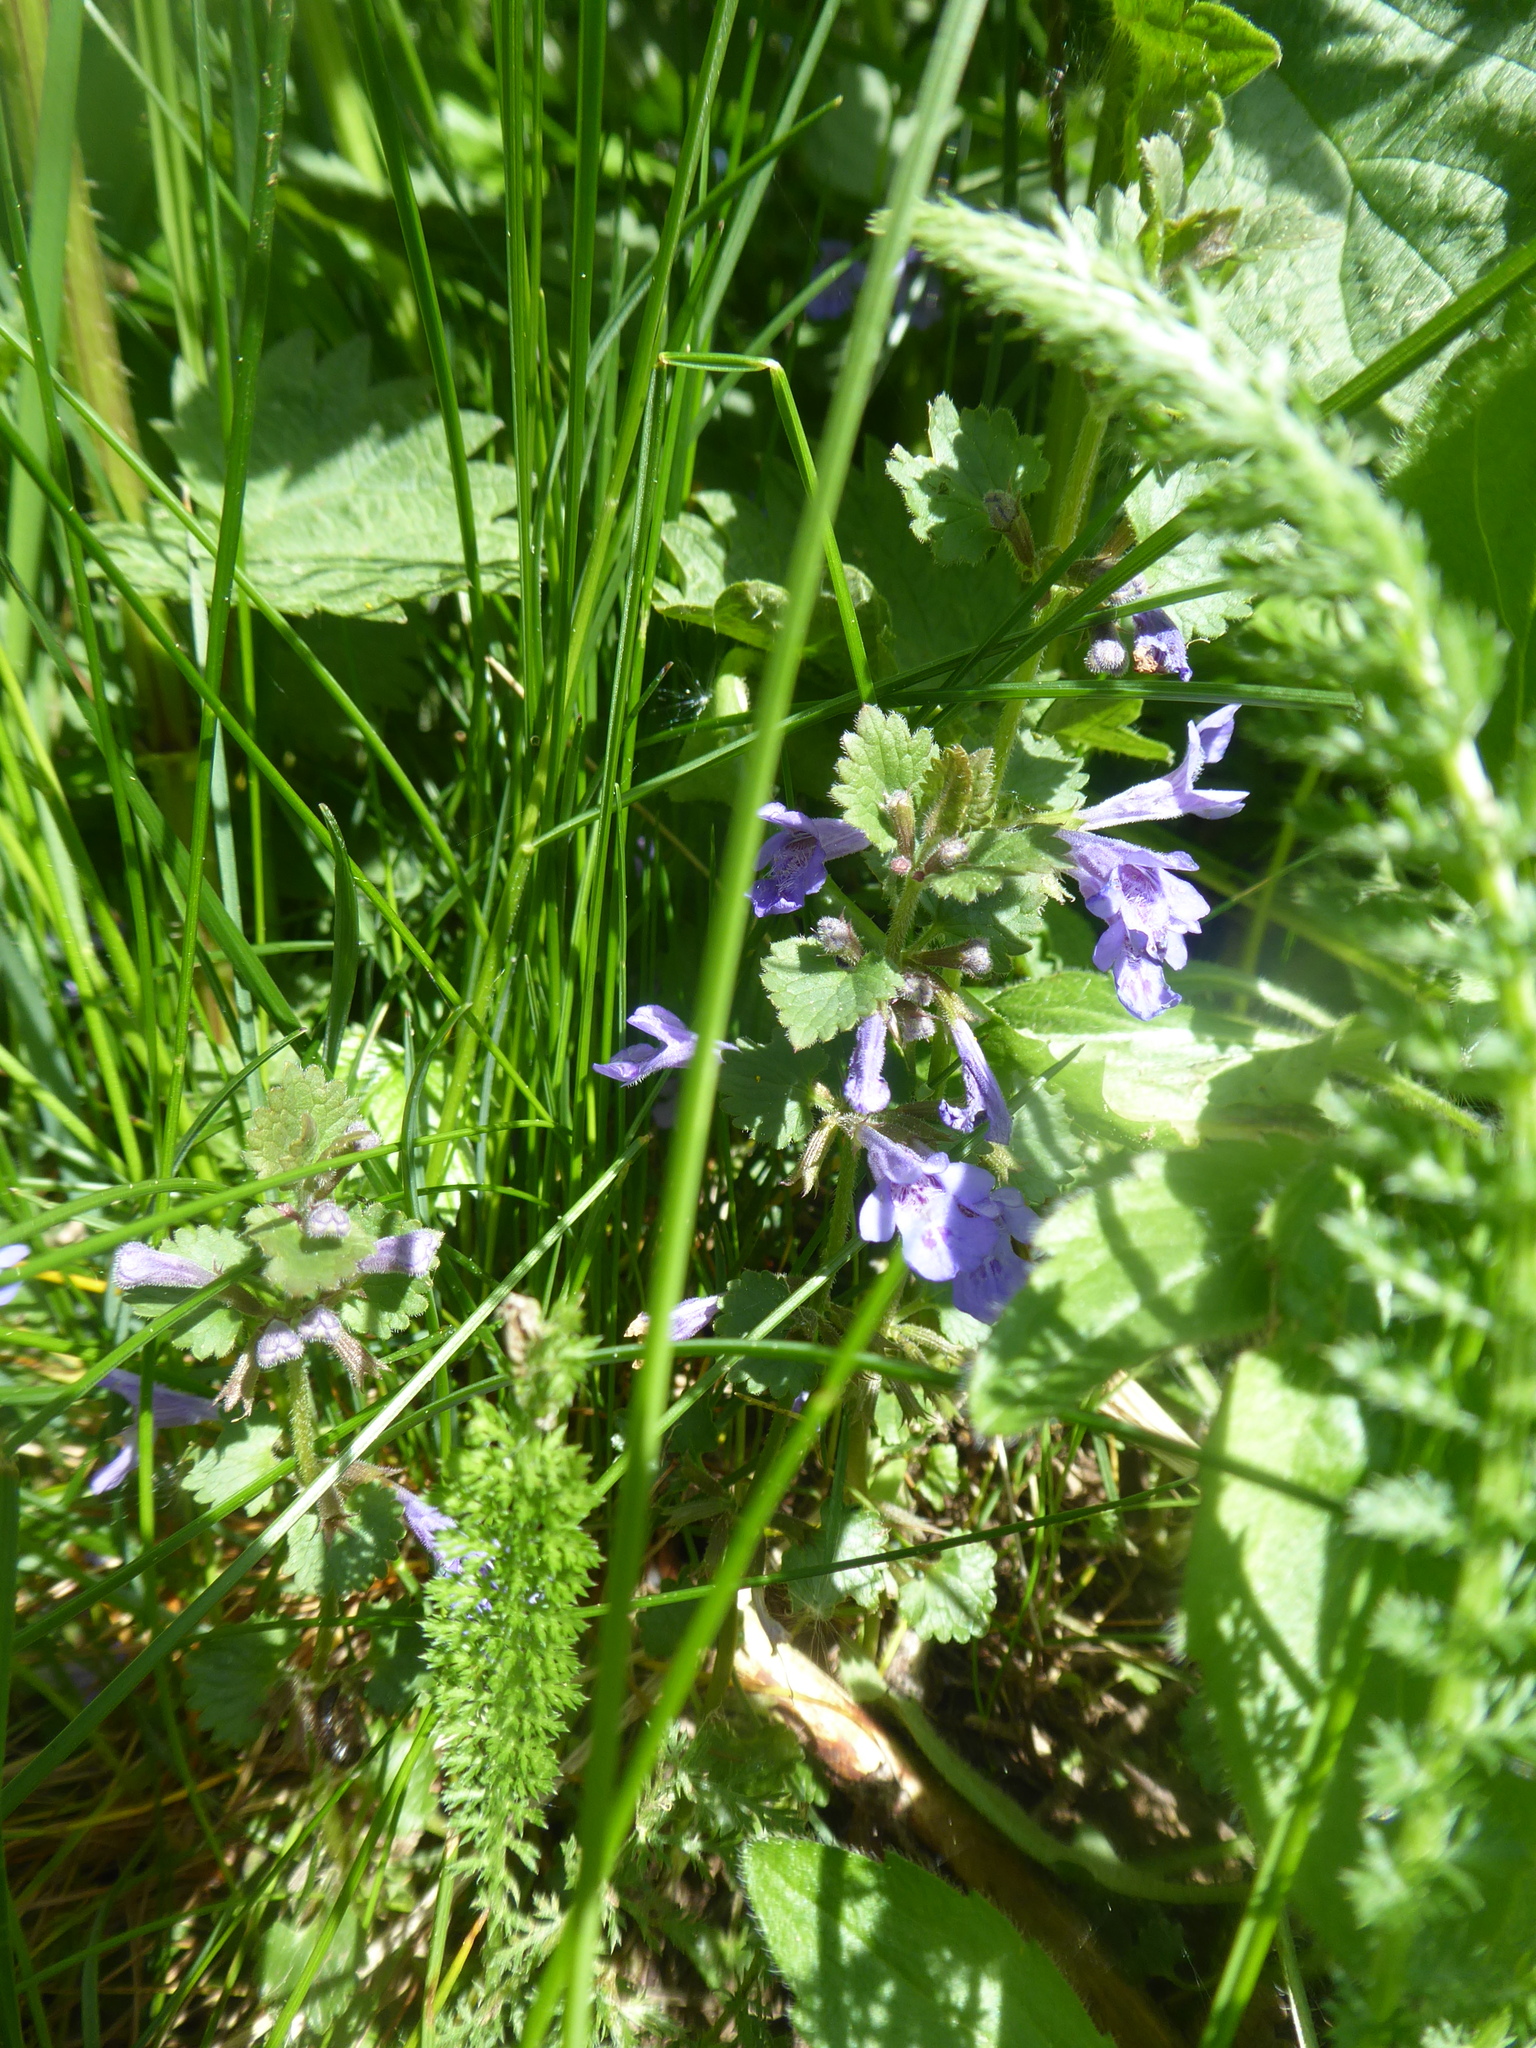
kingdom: Plantae
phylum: Tracheophyta
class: Magnoliopsida
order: Lamiales
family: Lamiaceae
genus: Glechoma
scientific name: Glechoma hederacea
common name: Ground ivy
